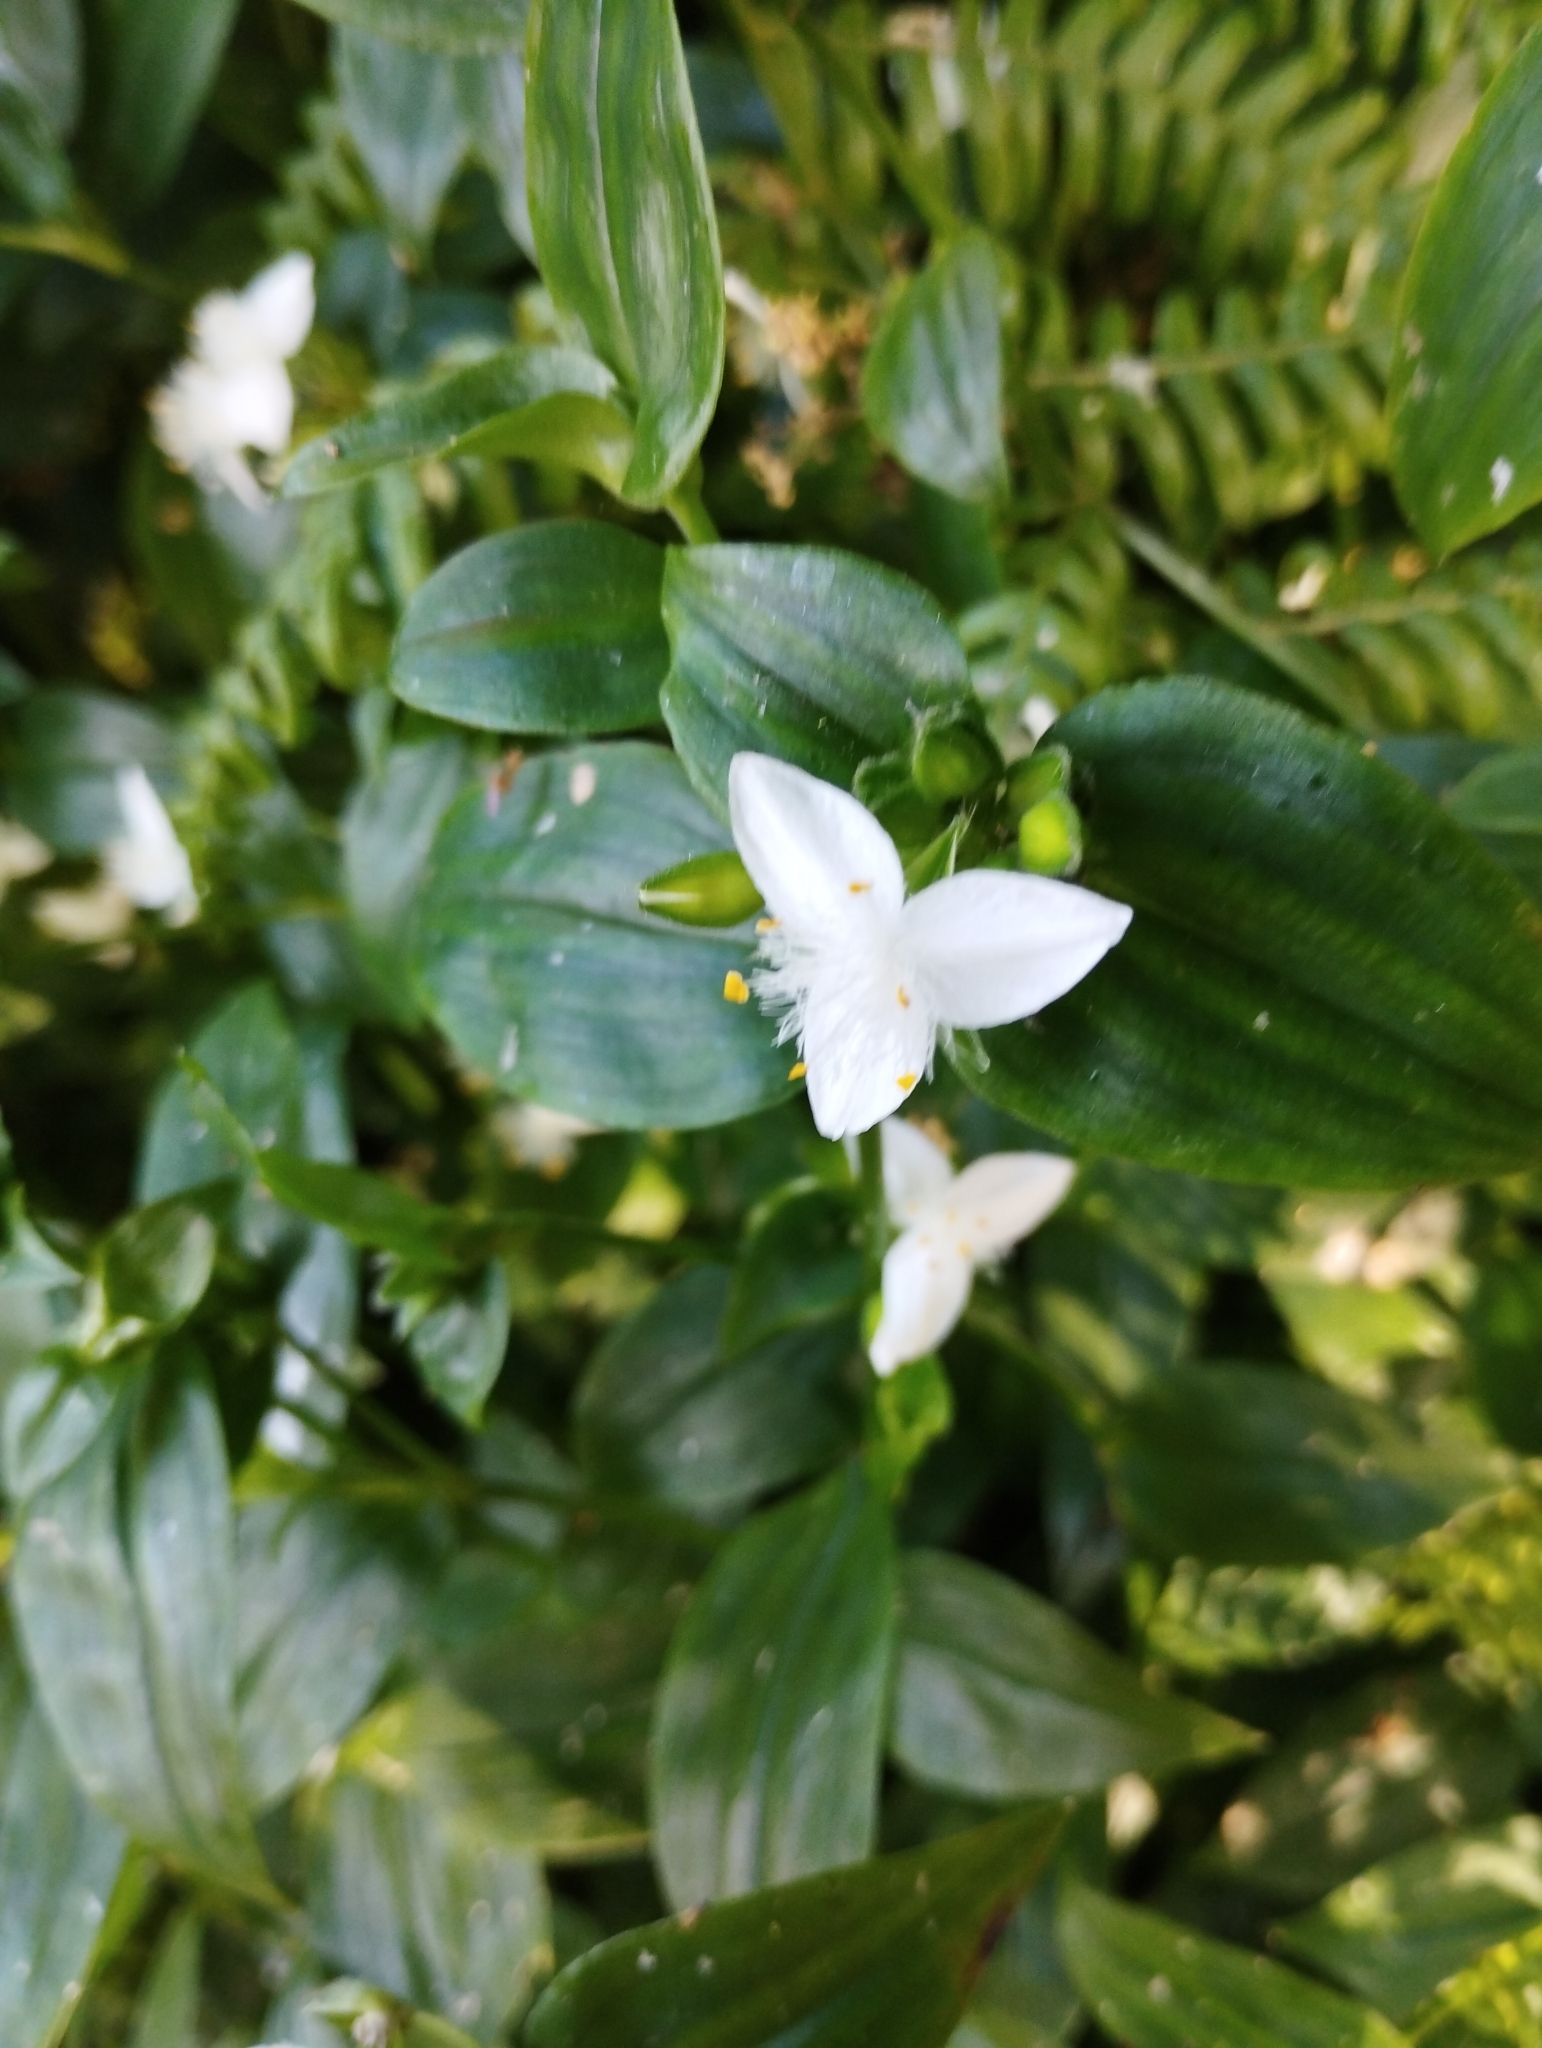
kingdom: Plantae
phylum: Tracheophyta
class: Liliopsida
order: Commelinales
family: Commelinaceae
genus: Tradescantia
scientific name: Tradescantia fluminensis
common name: Wandering-jew
